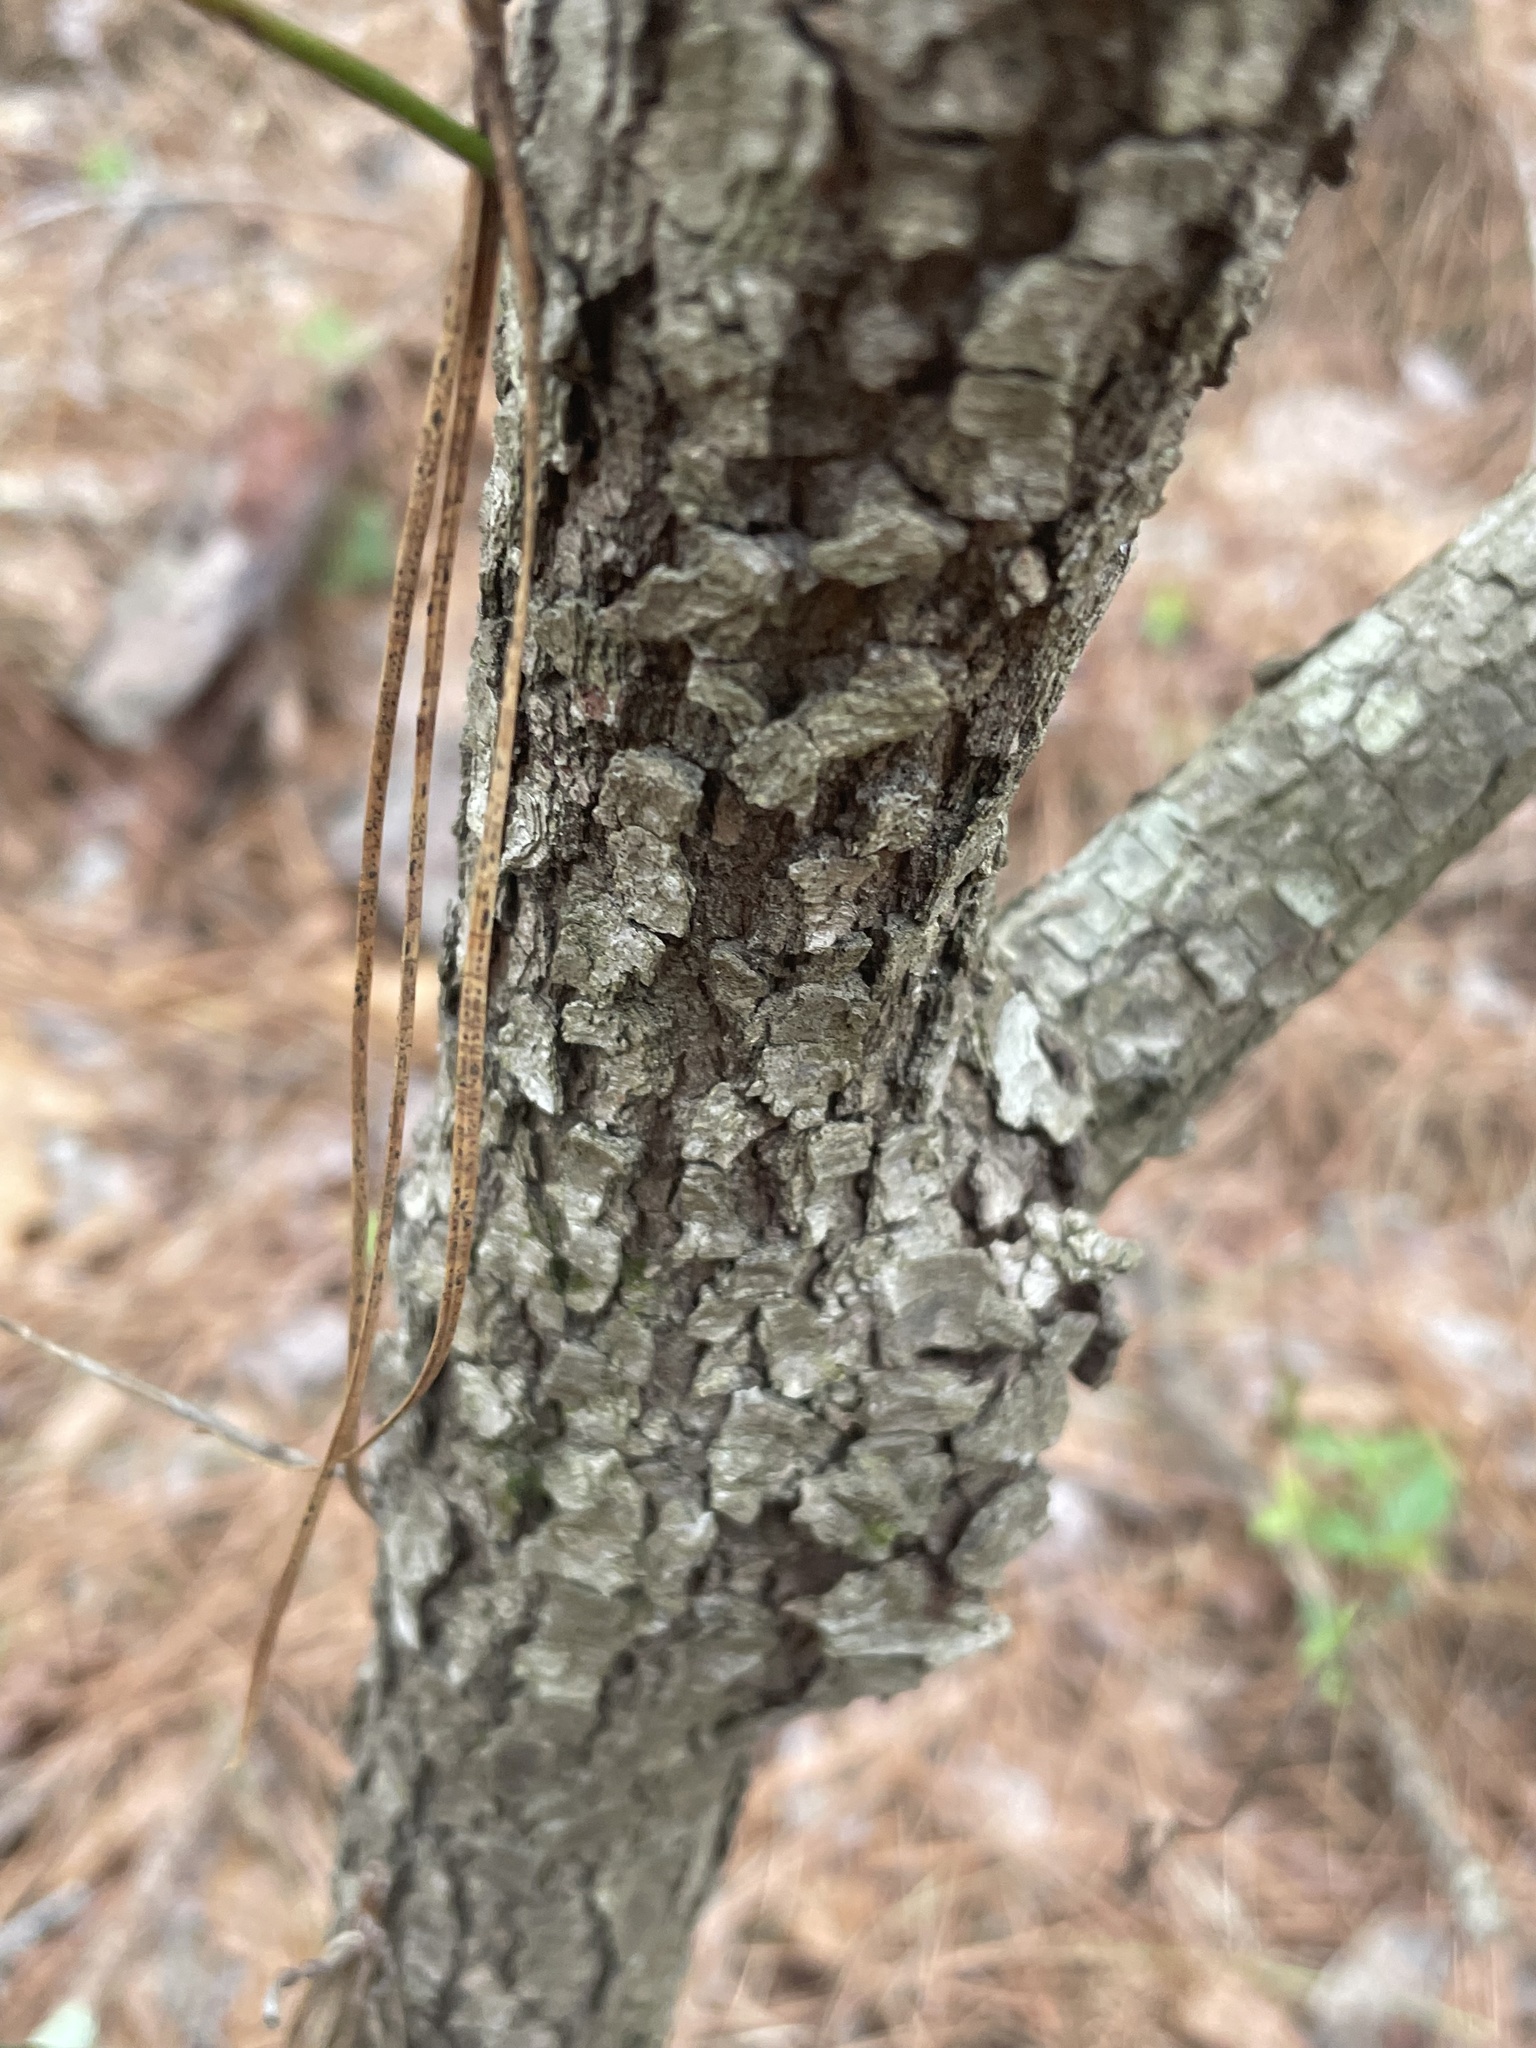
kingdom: Plantae
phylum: Tracheophyta
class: Magnoliopsida
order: Cornales
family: Cornaceae
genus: Cornus
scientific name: Cornus florida
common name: Flowering dogwood
